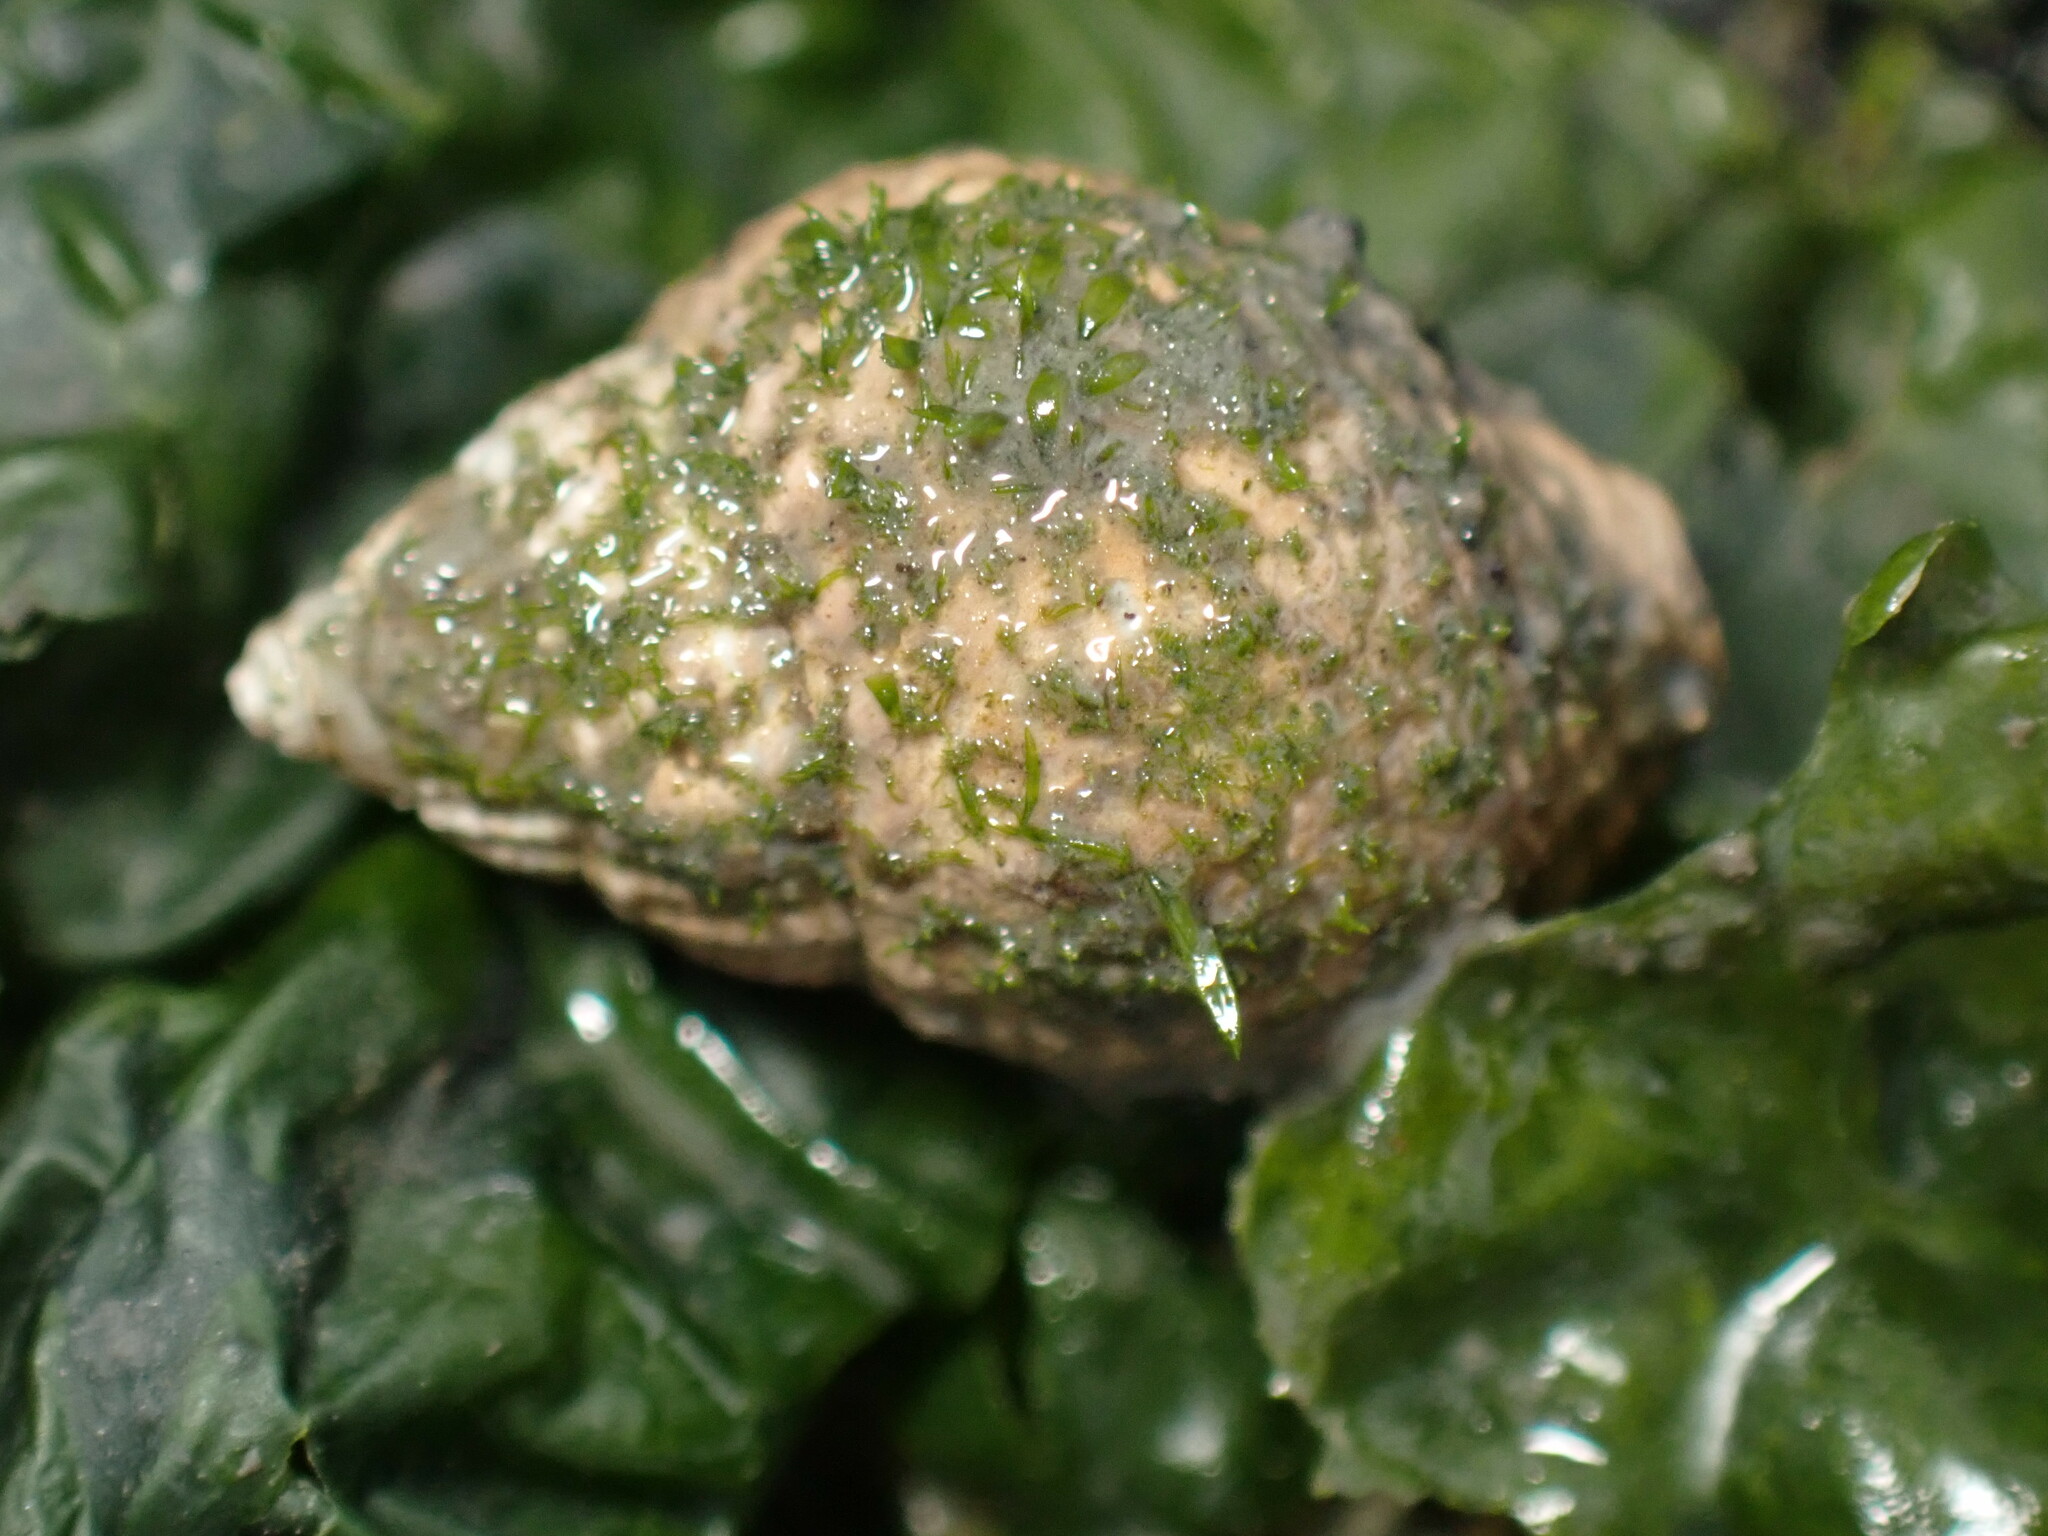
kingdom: Animalia
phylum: Mollusca
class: Gastropoda
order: Neogastropoda
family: Nassariidae
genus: Ilyanassa
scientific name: Ilyanassa obsoleta
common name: Eastern mudsnail
